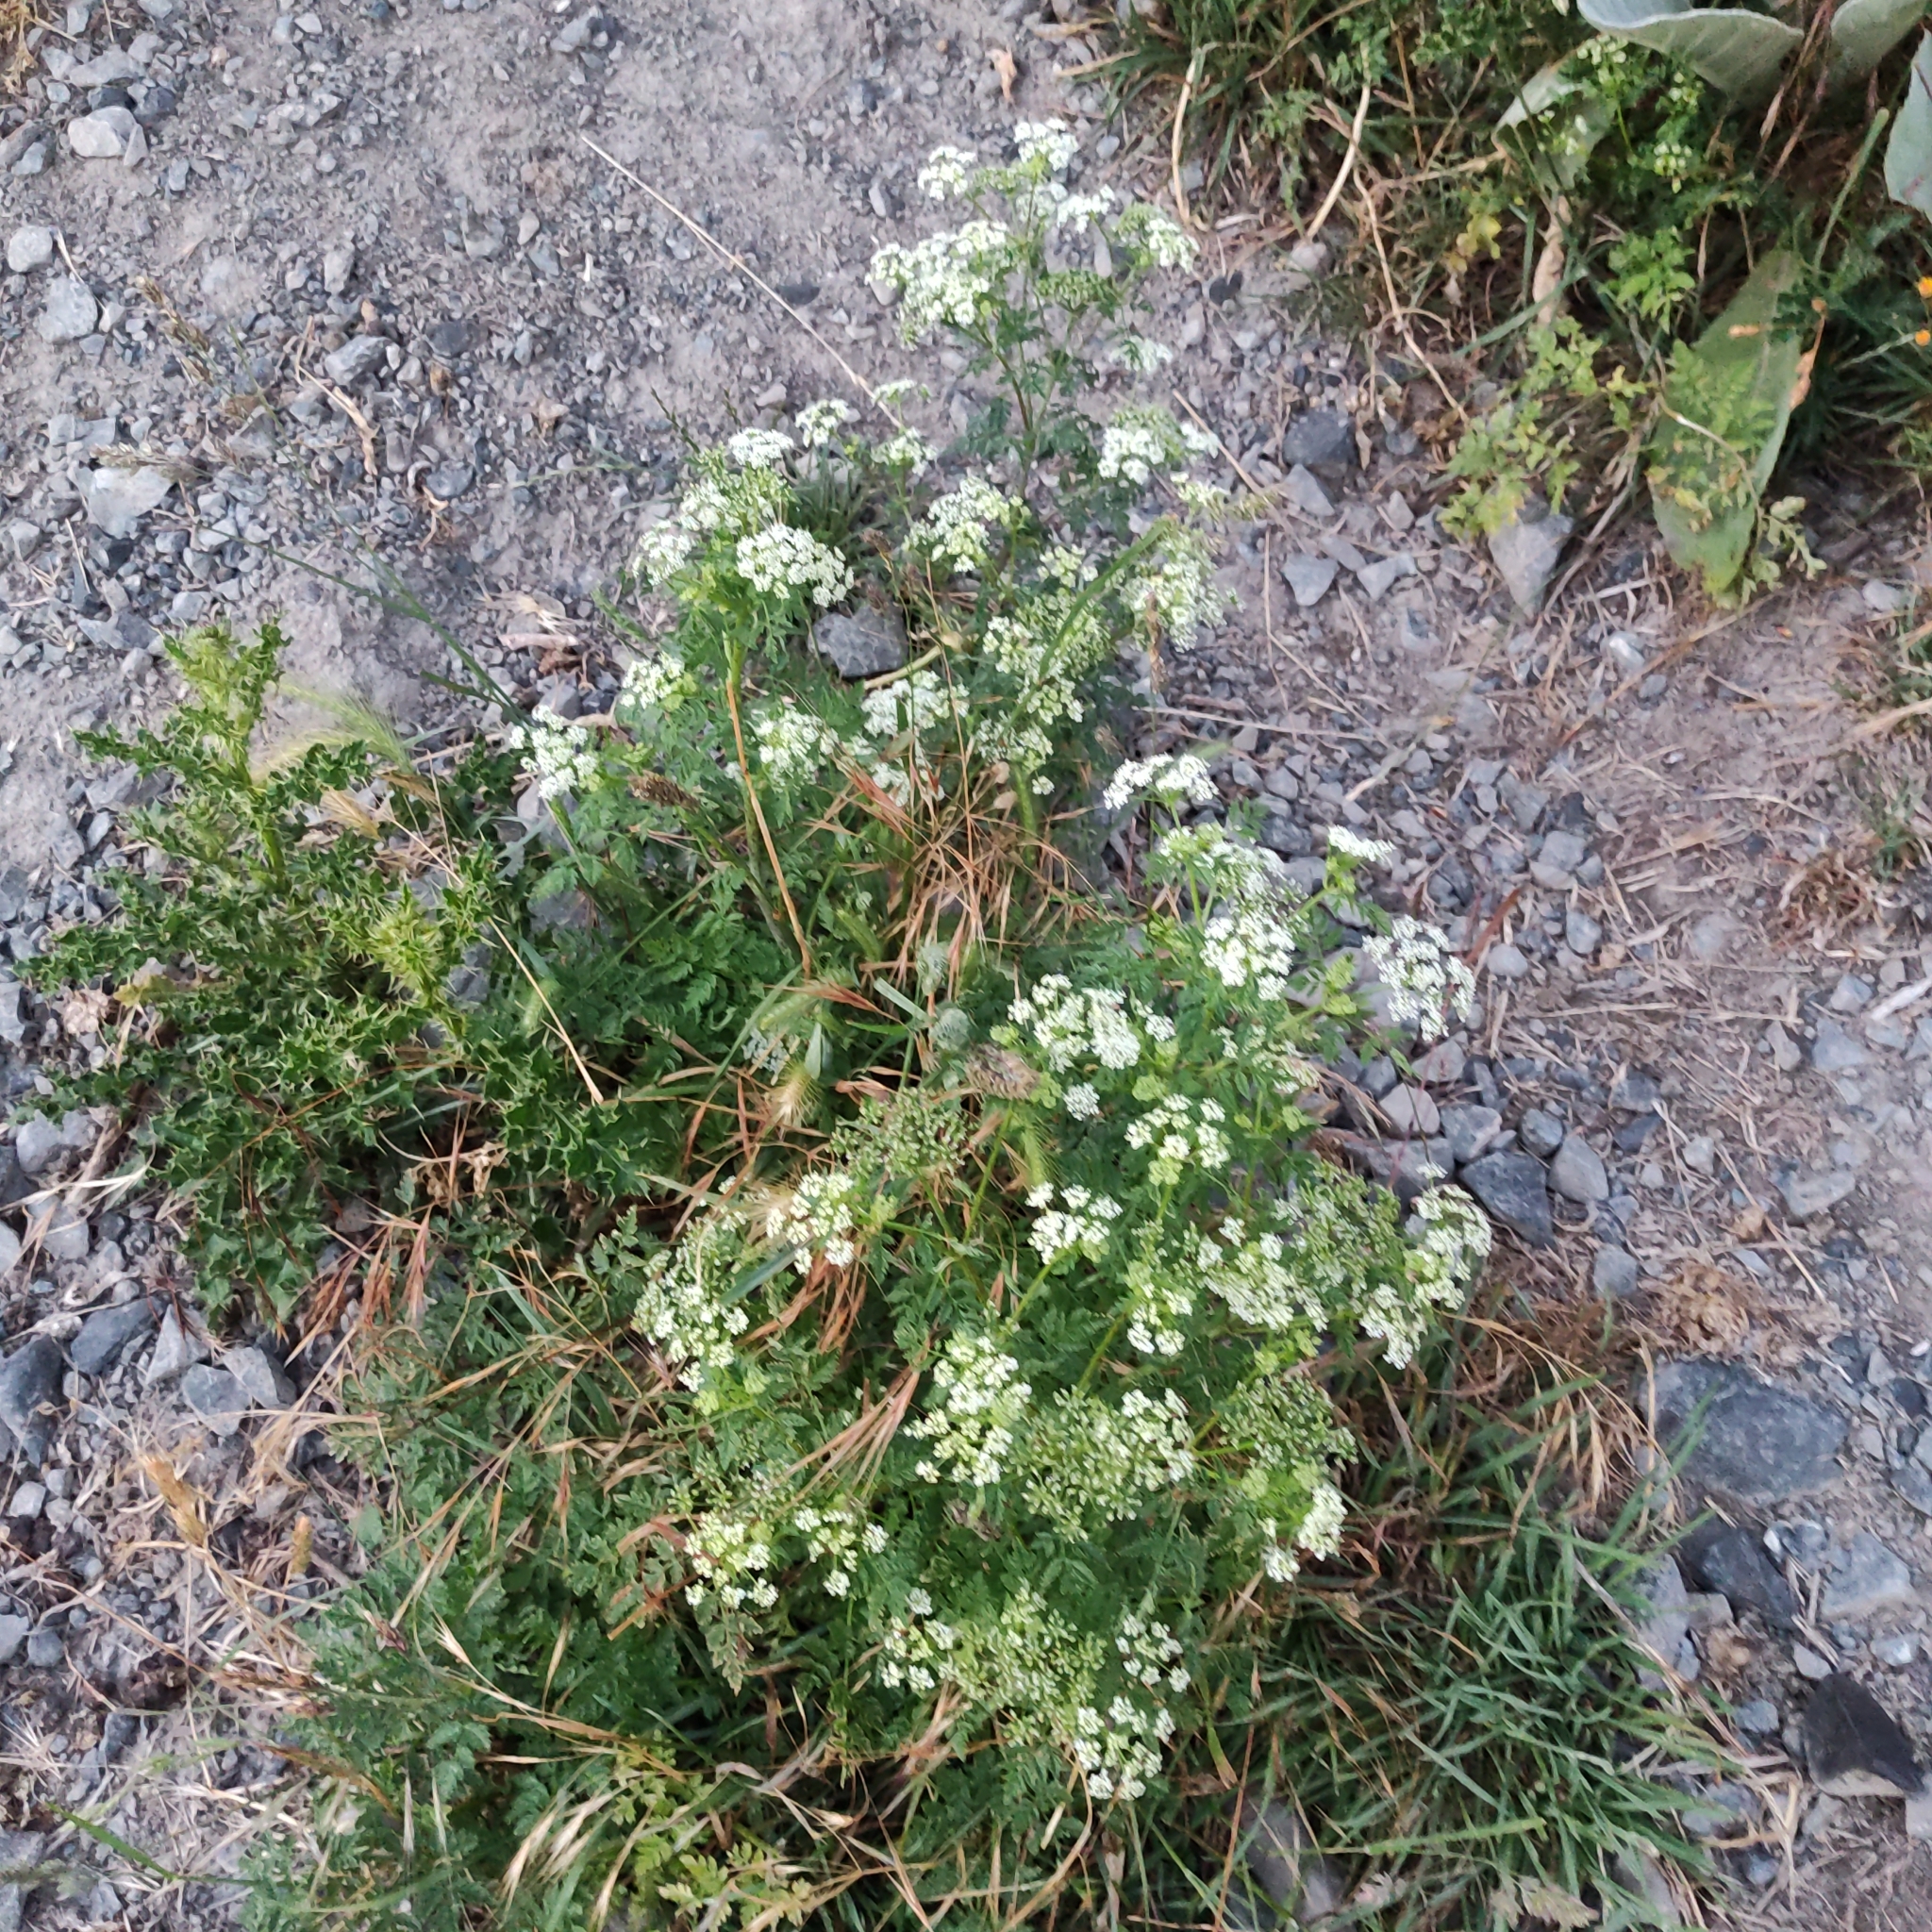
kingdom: Plantae
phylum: Tracheophyta
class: Magnoliopsida
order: Apiales
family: Apiaceae
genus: Conium
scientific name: Conium maculatum
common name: Hemlock
